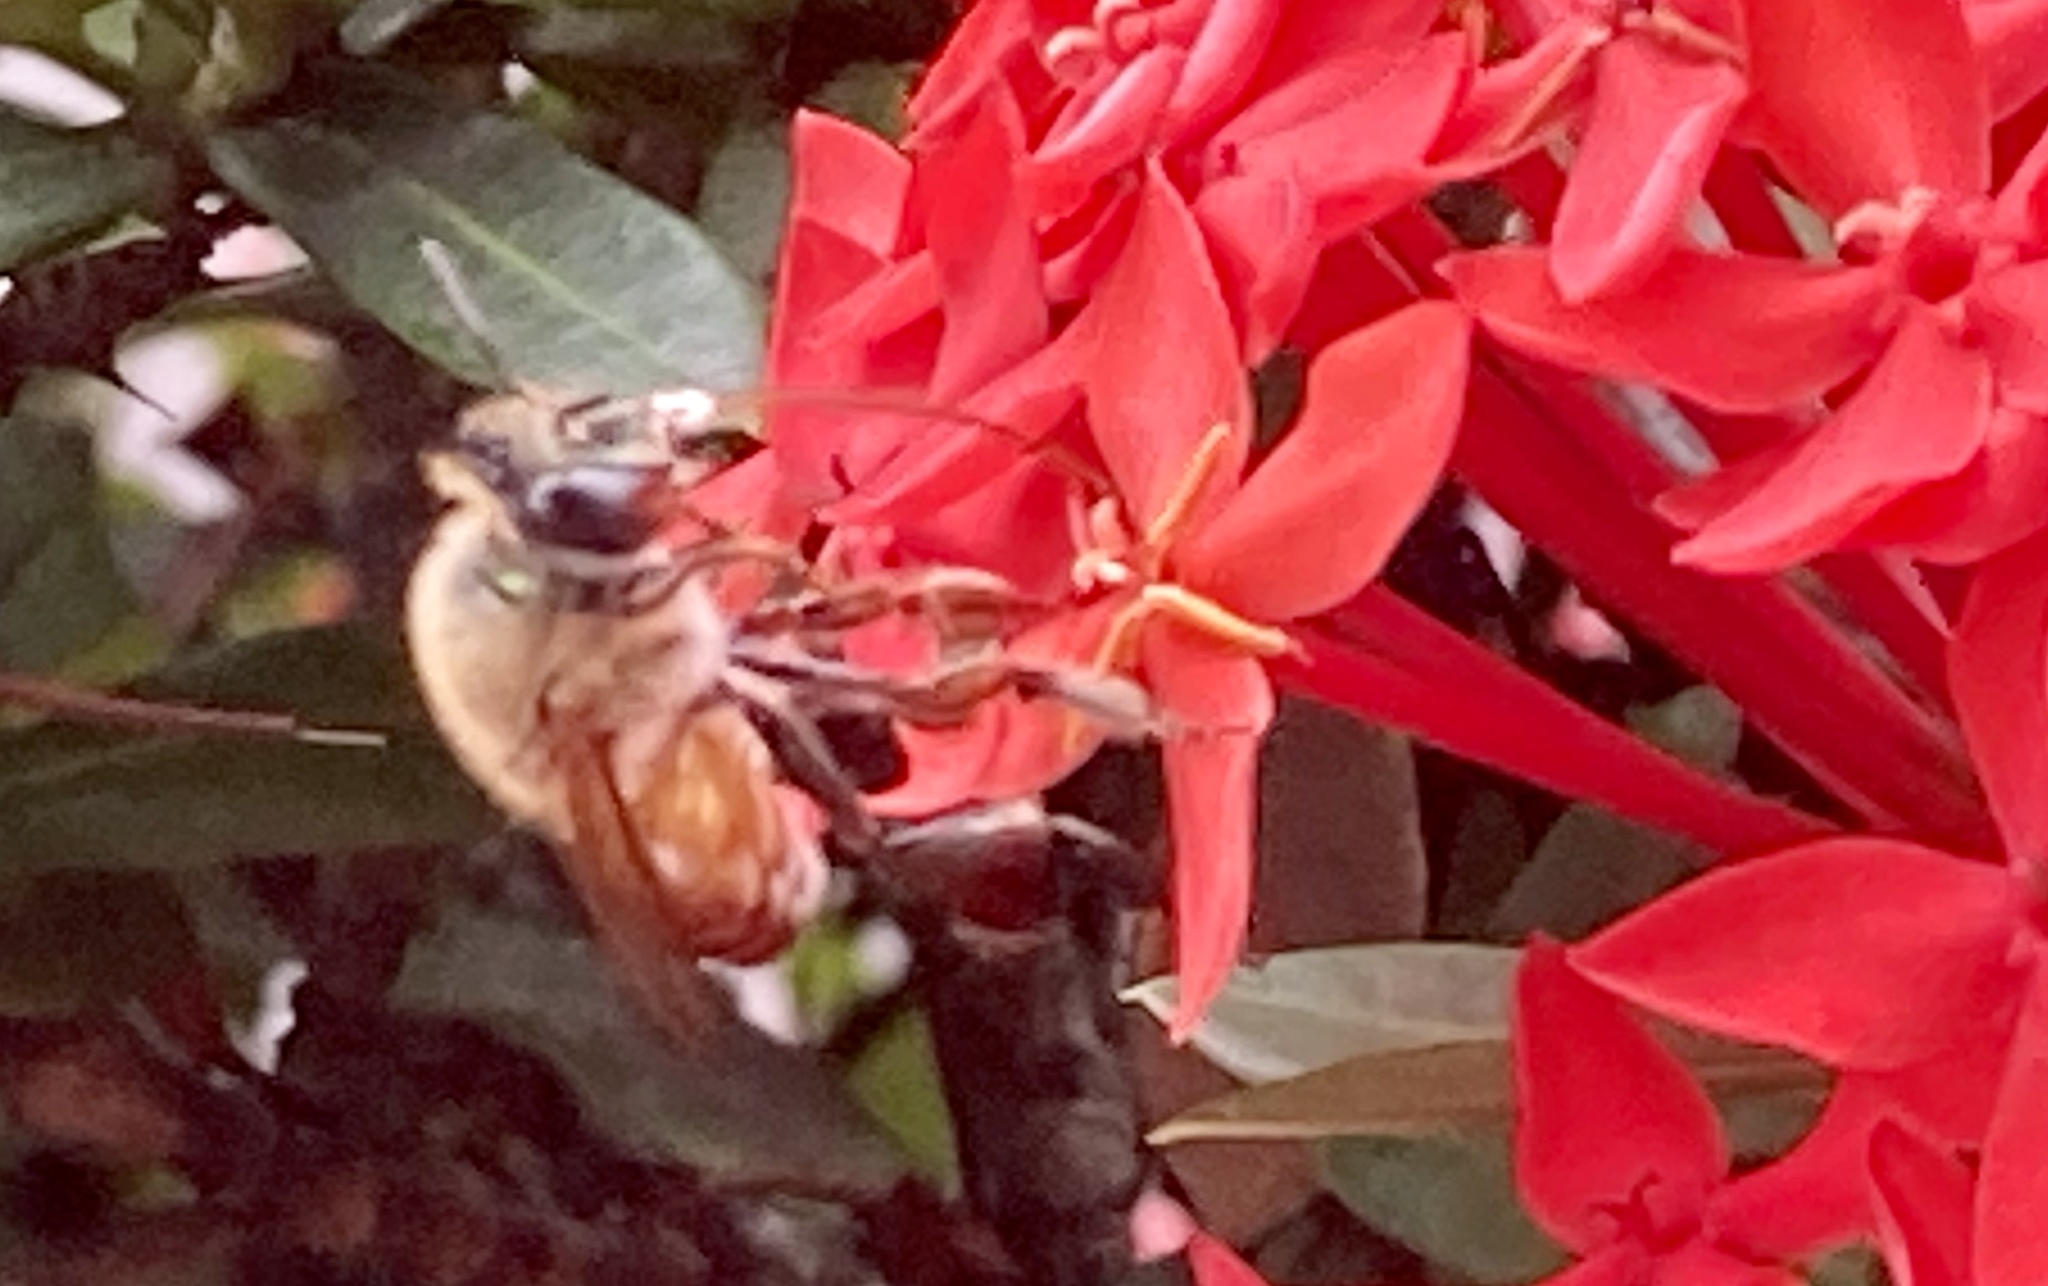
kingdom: Animalia
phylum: Arthropoda
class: Insecta
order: Hymenoptera
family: Apidae
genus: Apis
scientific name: Apis mellifera
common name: Honey bee
